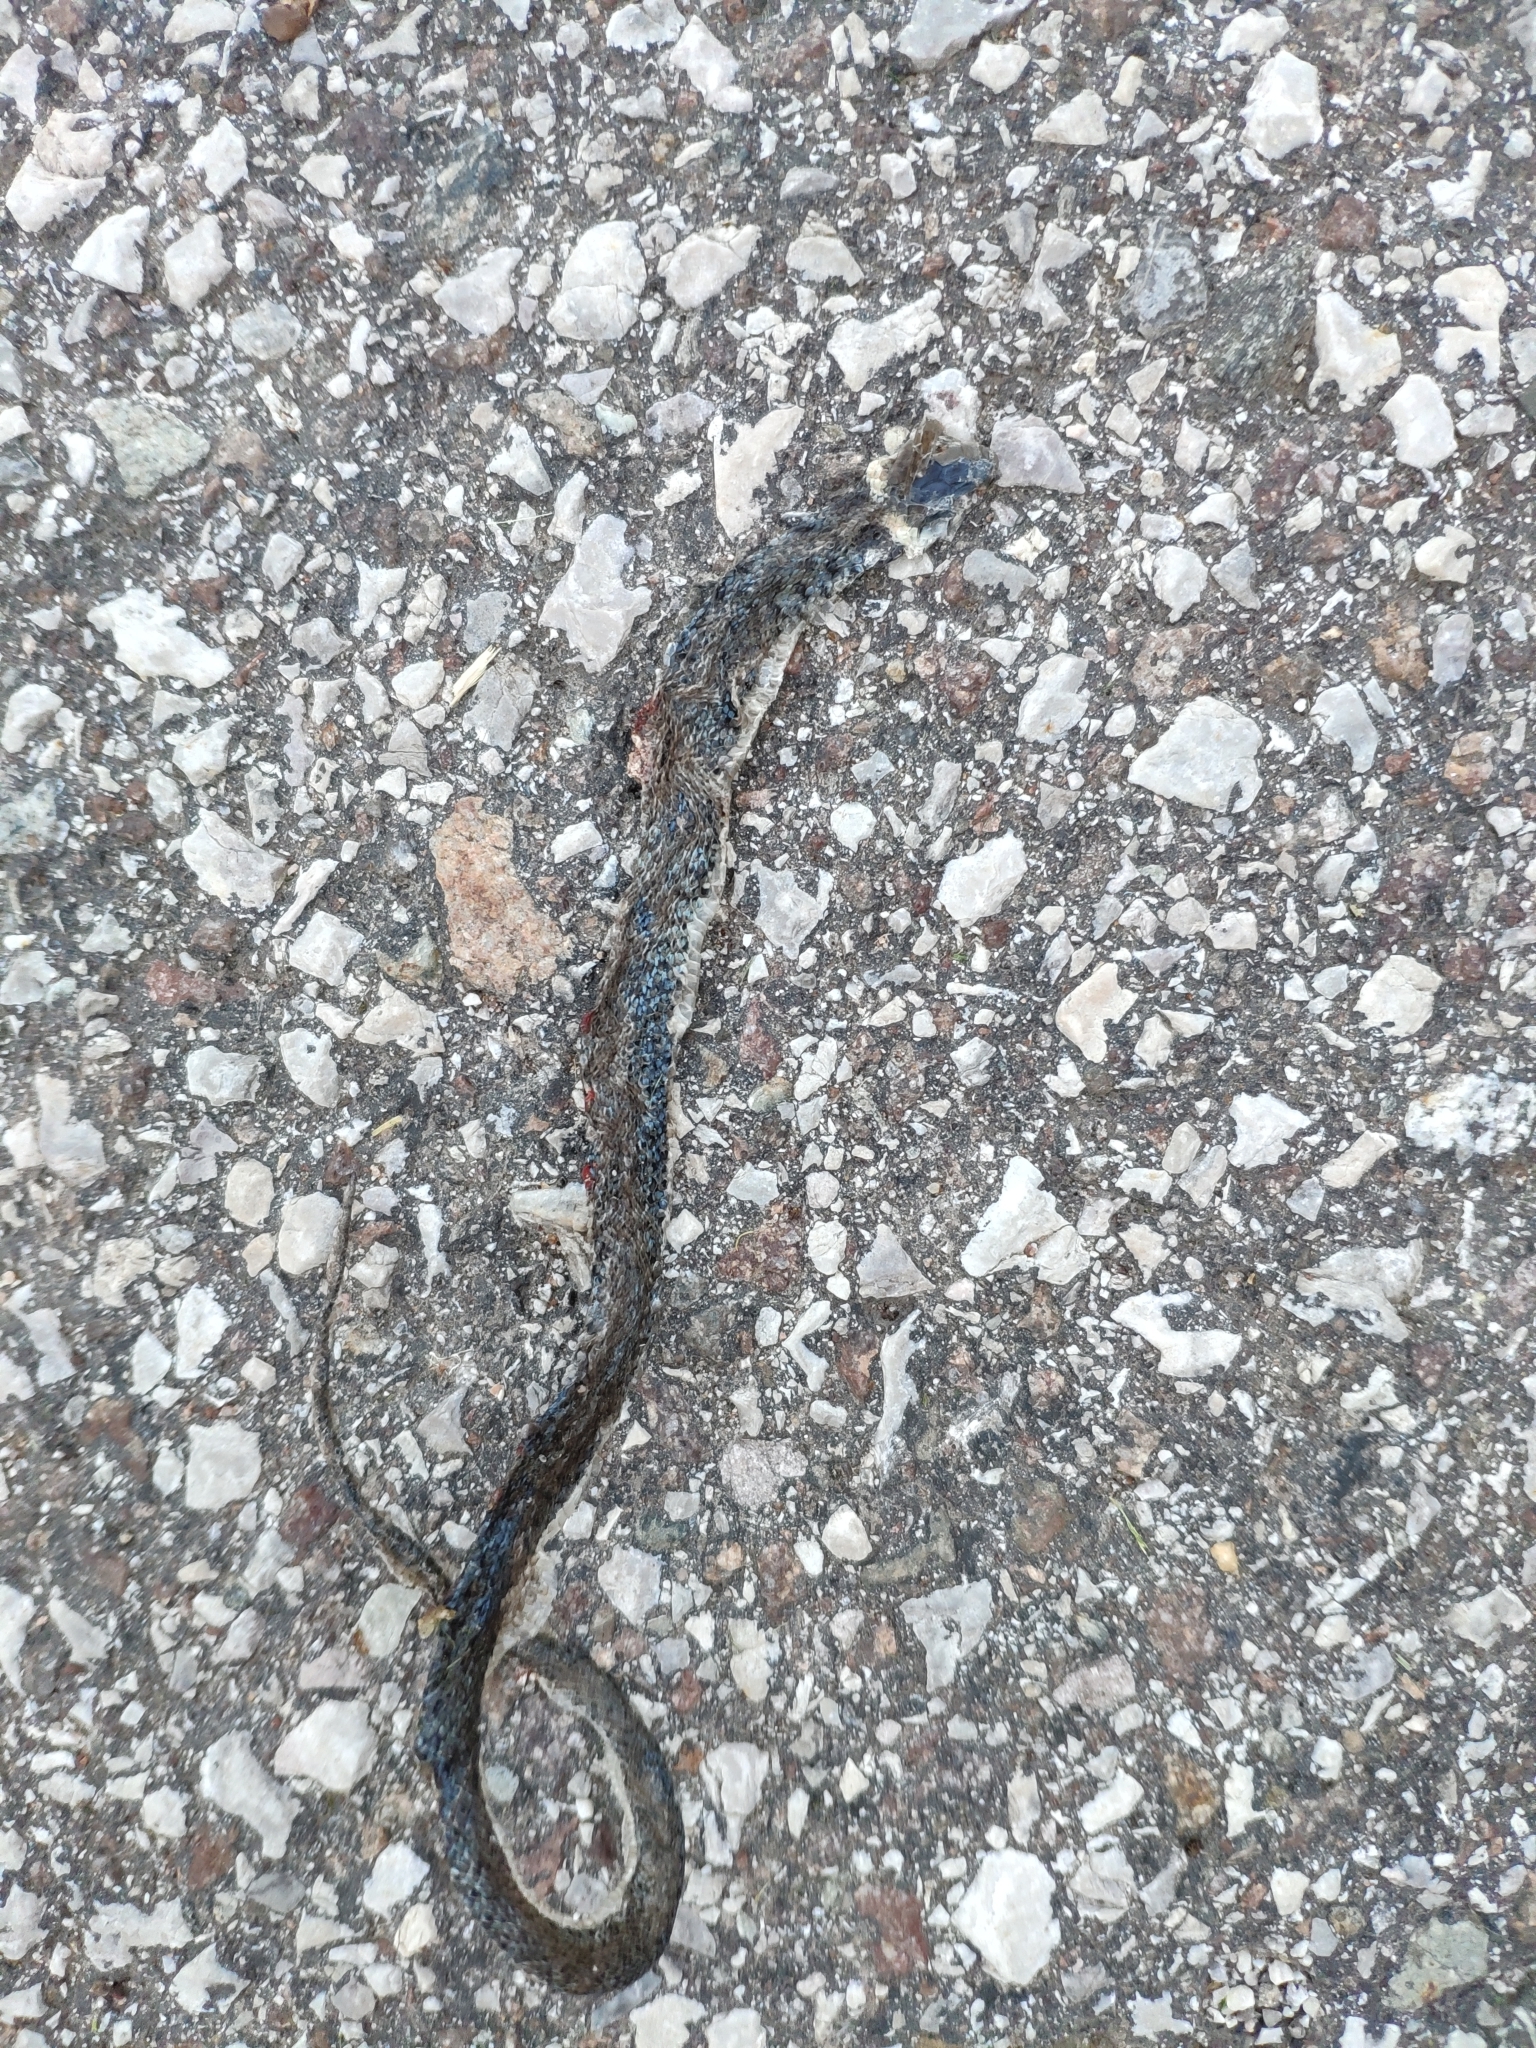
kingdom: Animalia
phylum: Chordata
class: Squamata
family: Colubridae
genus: Natrix
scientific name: Natrix helvetica
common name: Banded grass snake
